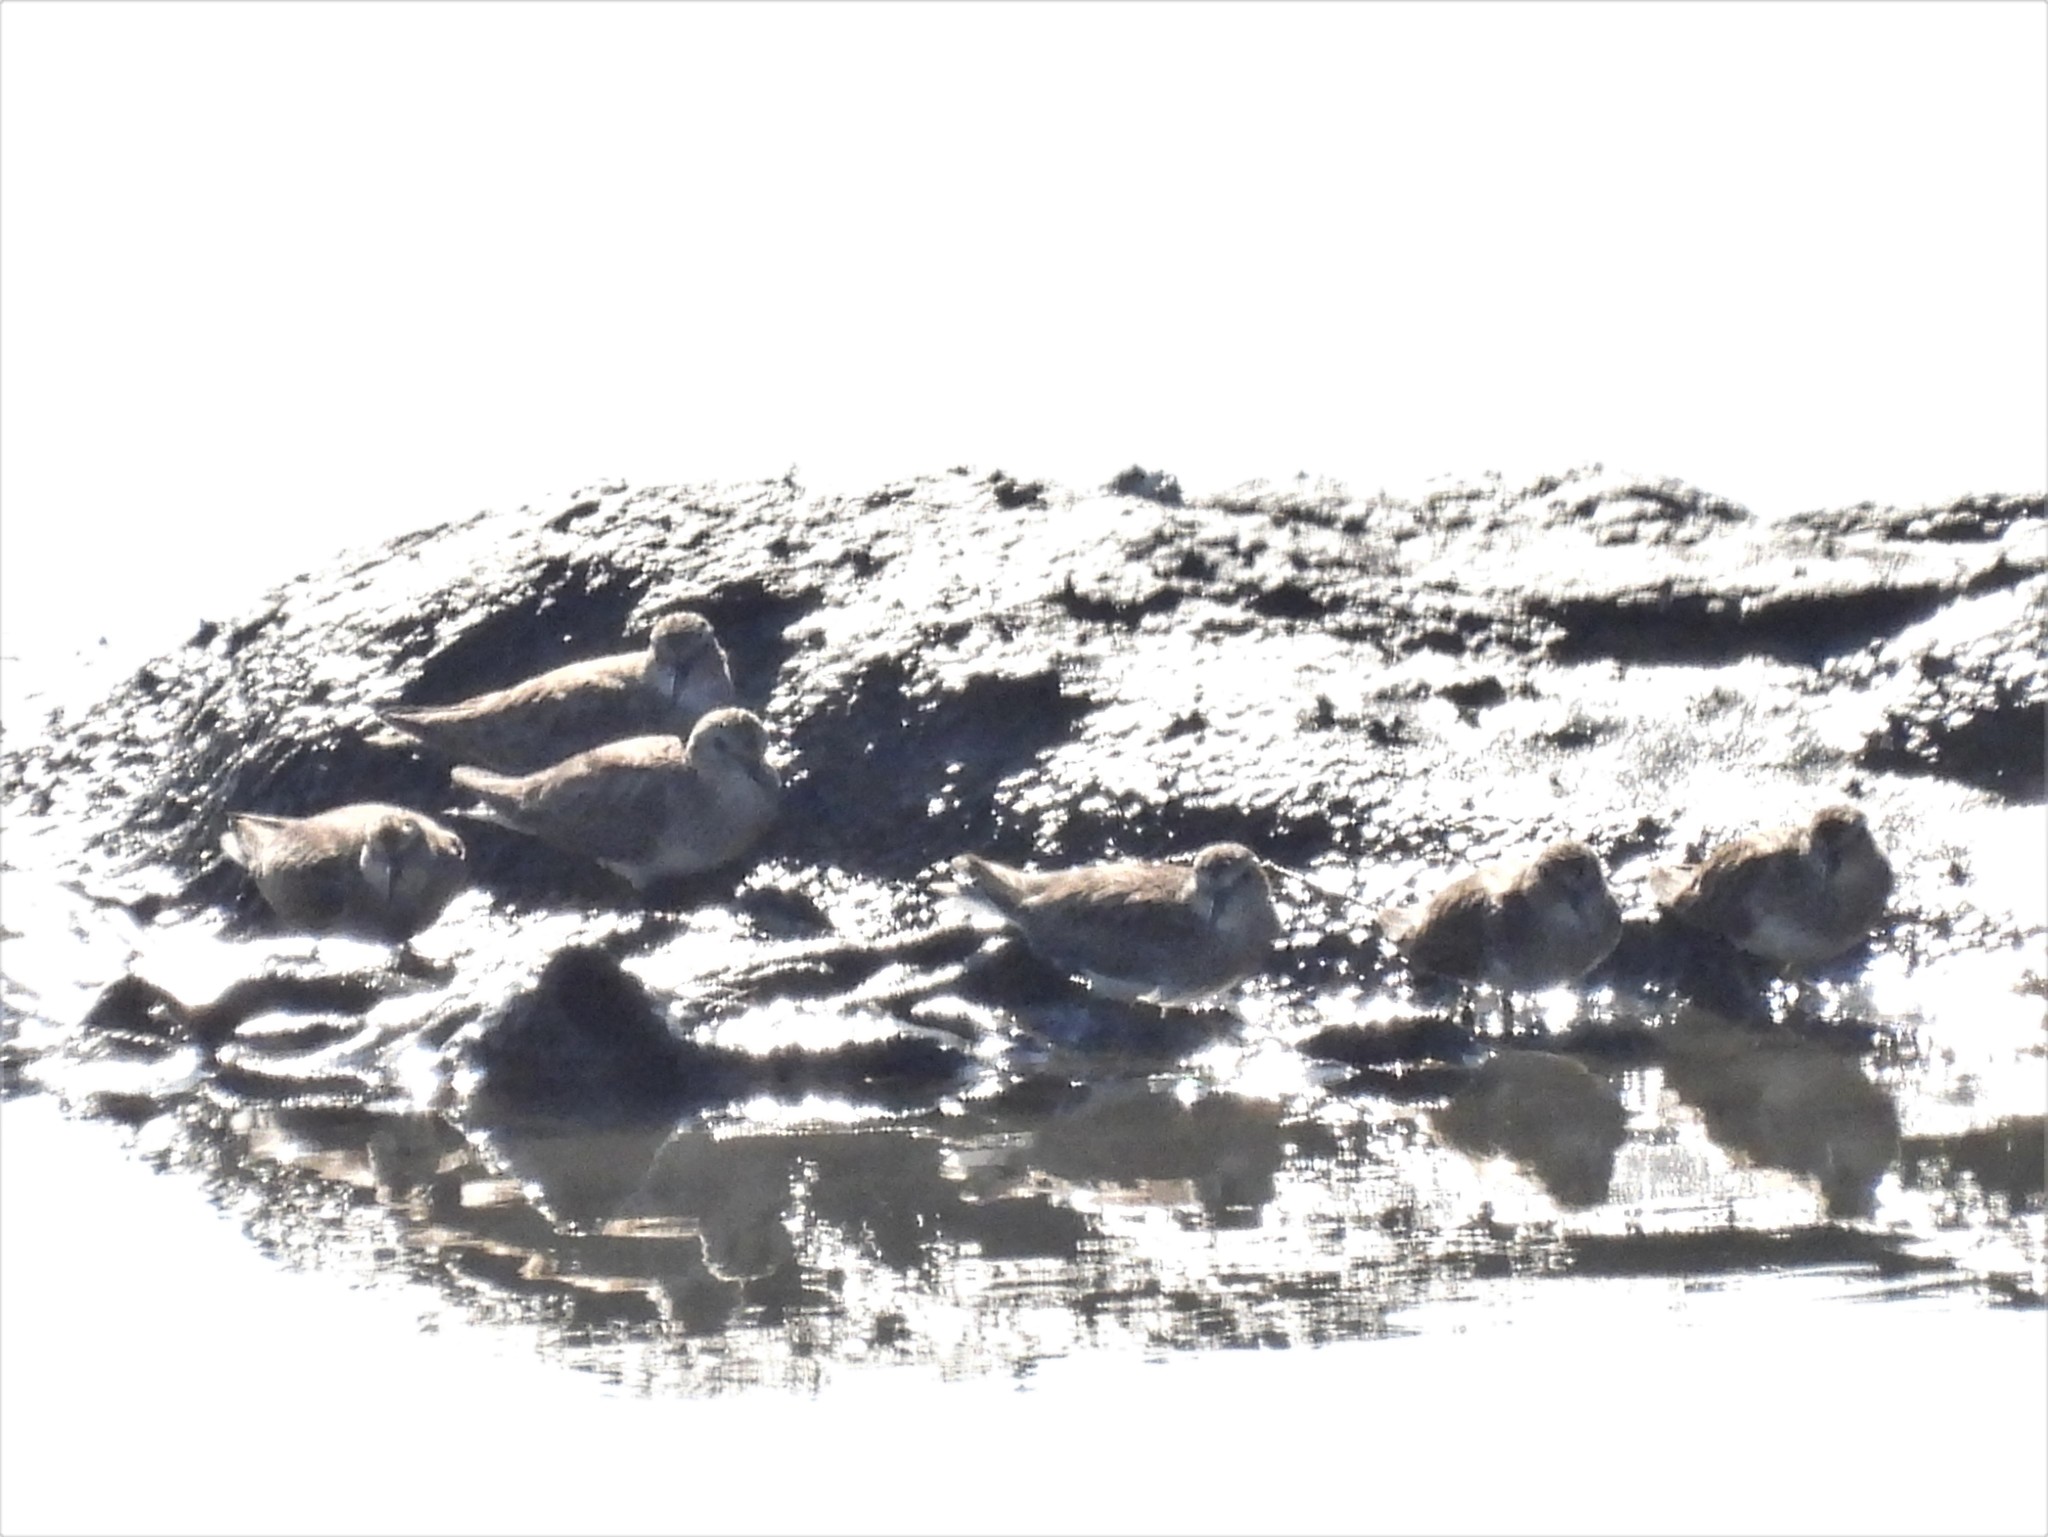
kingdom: Animalia
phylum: Chordata
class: Aves
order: Charadriiformes
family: Scolopacidae
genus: Calidris
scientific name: Calidris minutilla
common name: Least sandpiper
